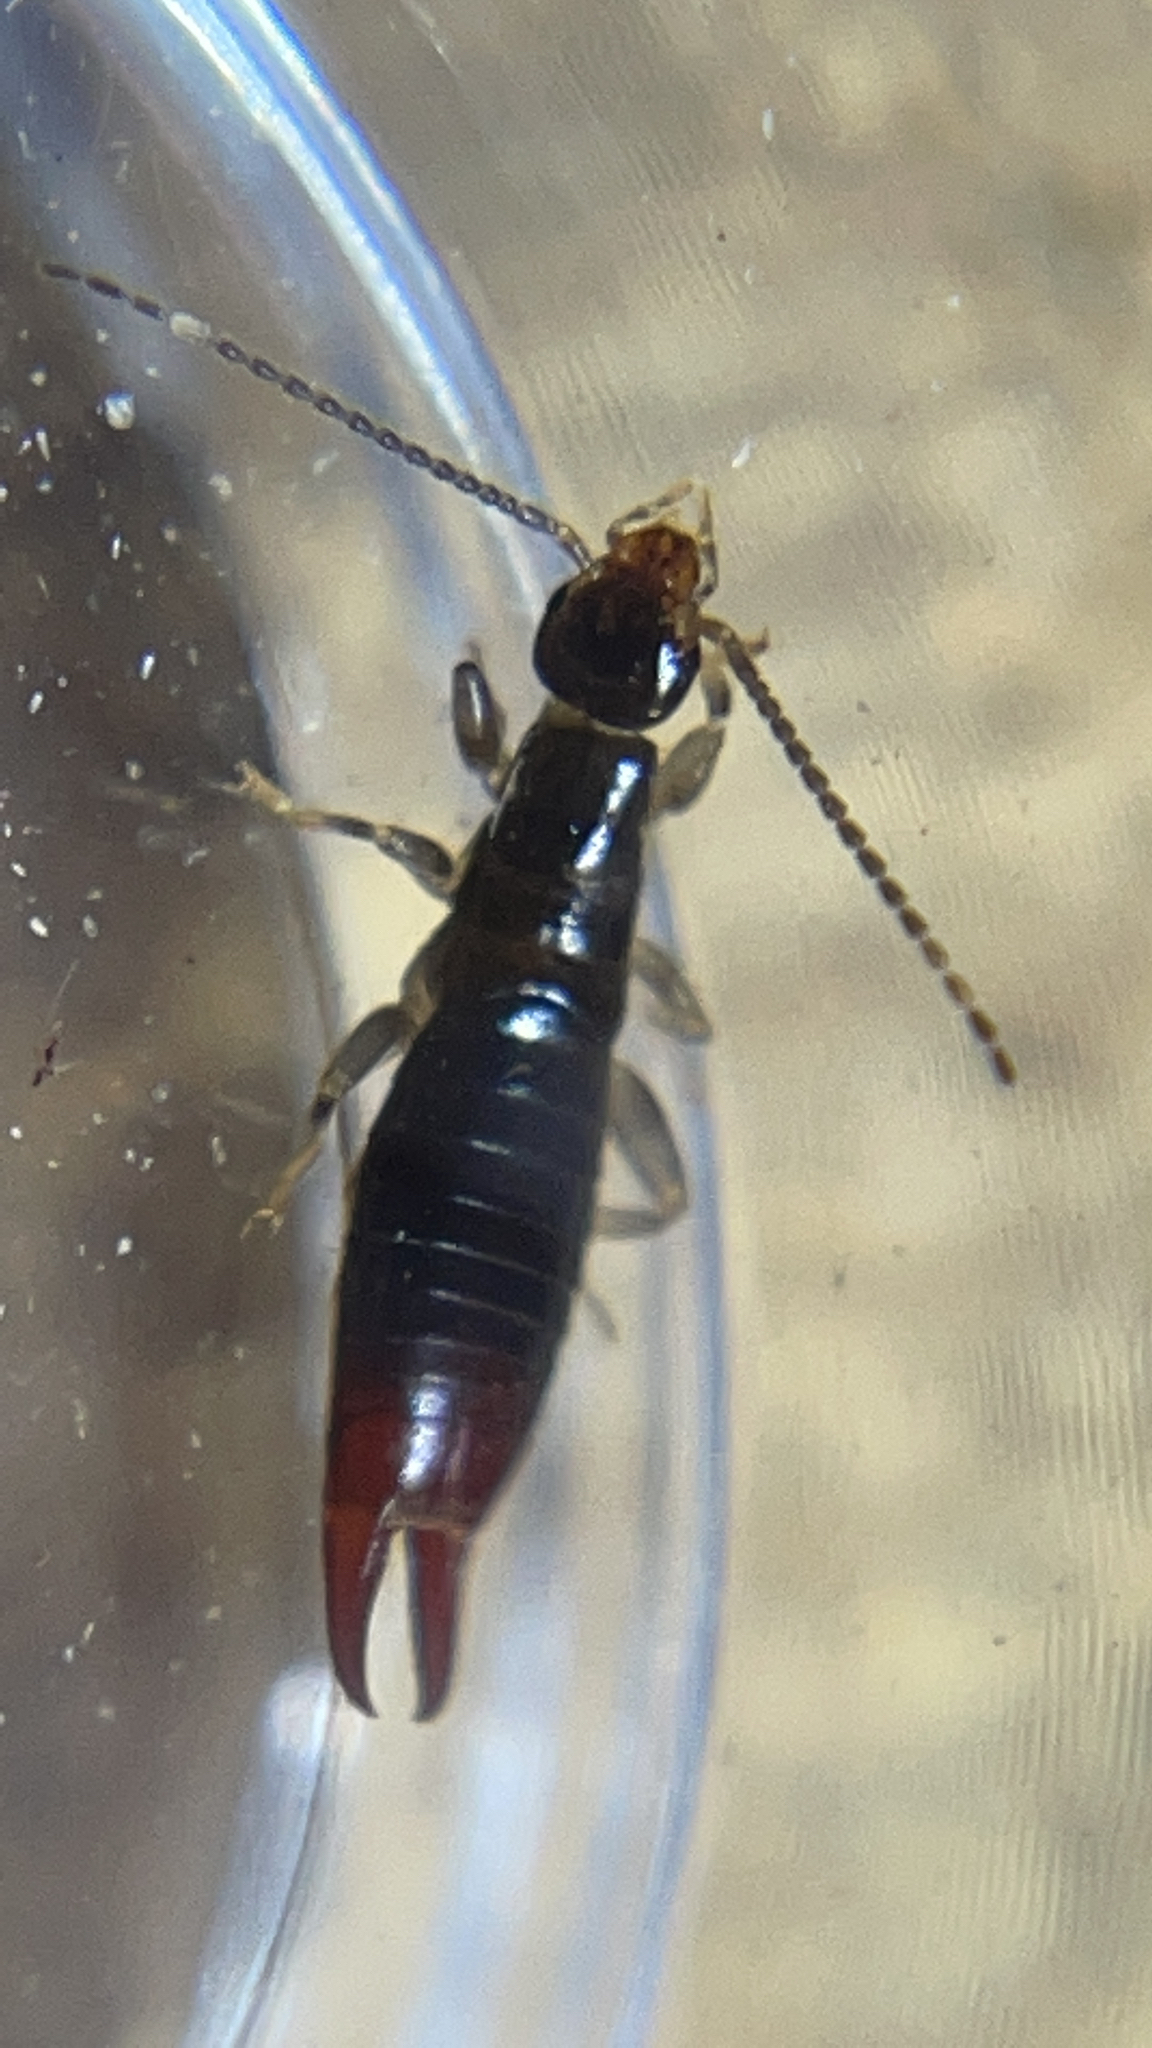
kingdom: Animalia
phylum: Arthropoda
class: Insecta
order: Dermaptera
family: Anisolabididae
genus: Euborellia
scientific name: Euborellia annulipes
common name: Ringlegged earwig
